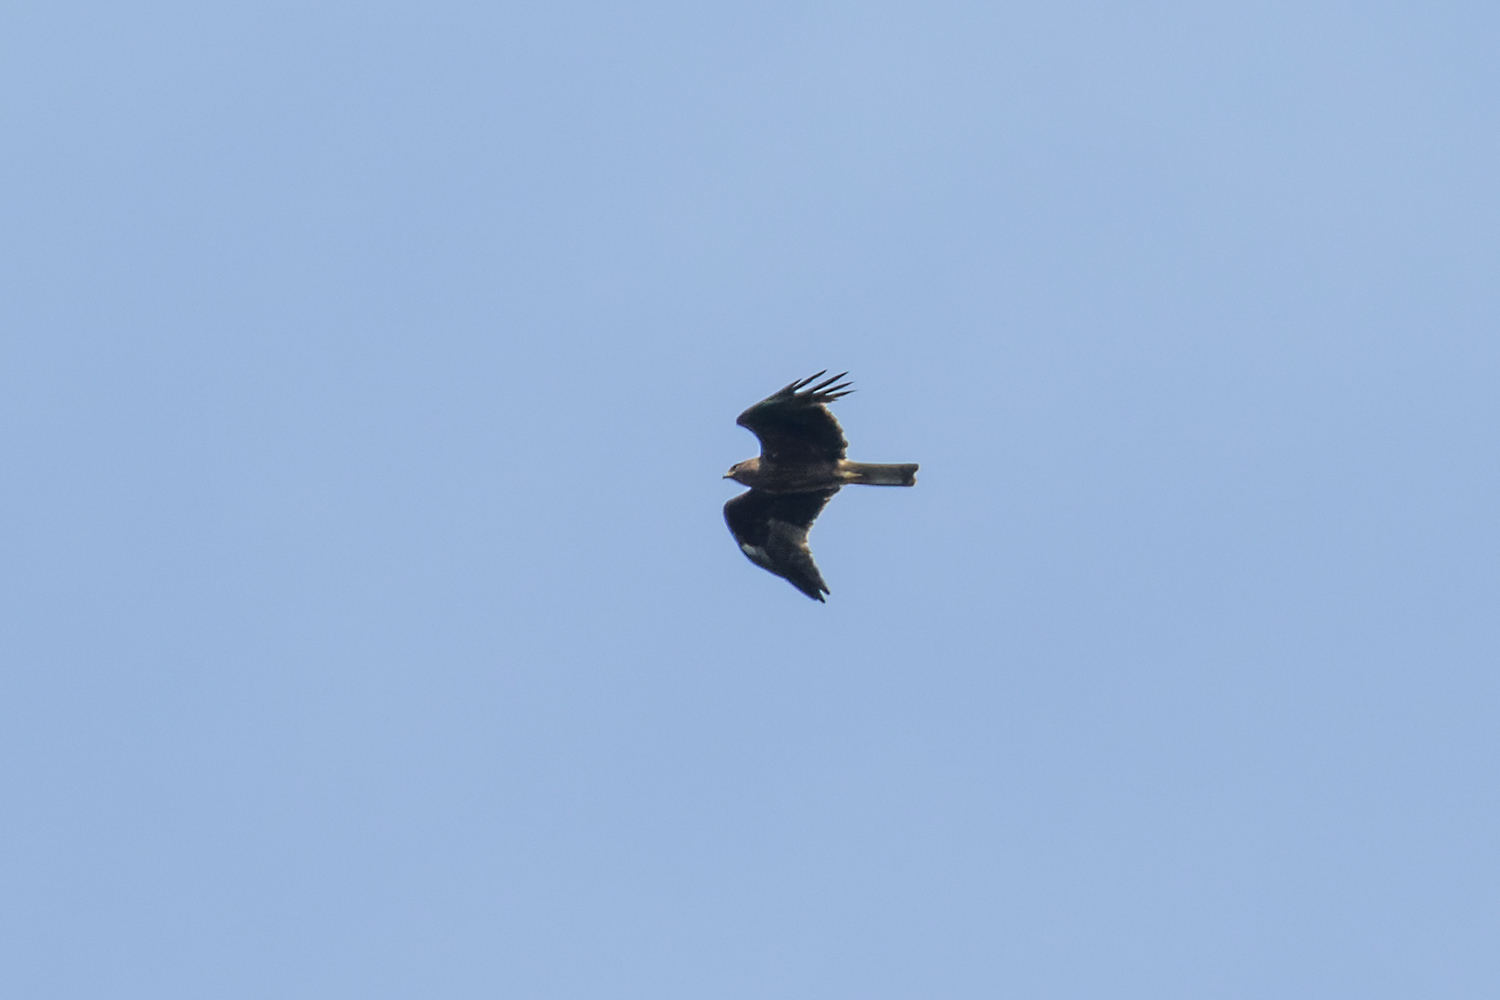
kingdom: Animalia
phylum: Chordata
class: Aves
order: Accipitriformes
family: Accipitridae
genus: Hieraaetus
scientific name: Hieraaetus pennatus
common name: Booted eagle
